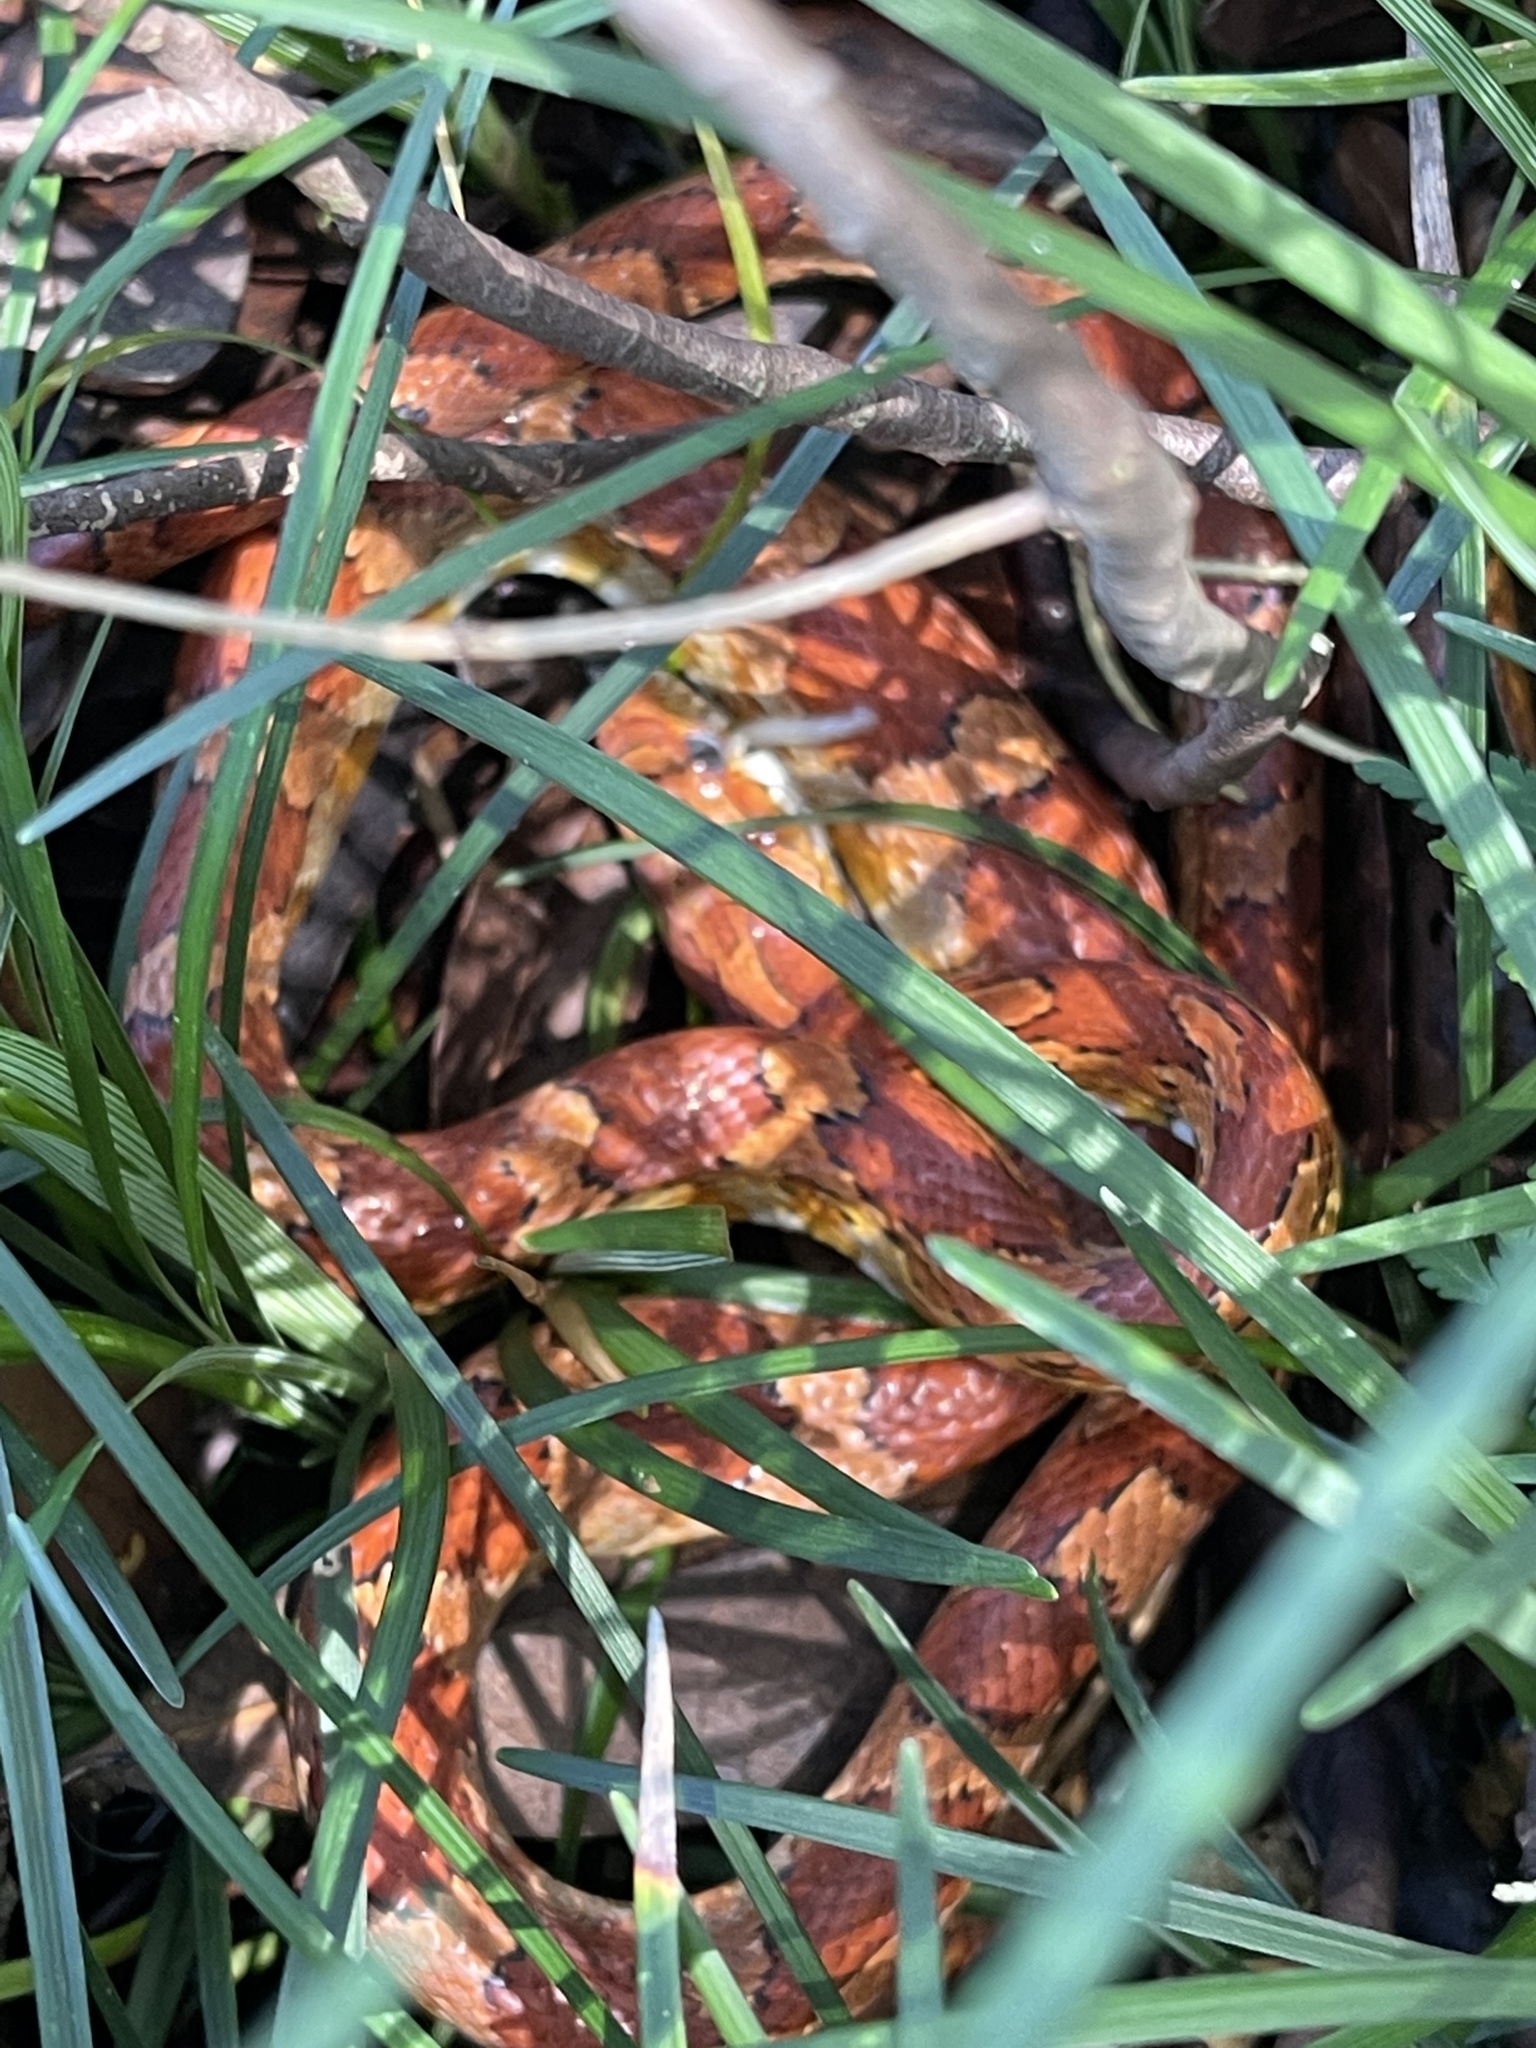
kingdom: Animalia
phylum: Chordata
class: Squamata
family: Colubridae
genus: Pantherophis
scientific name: Pantherophis guttatus
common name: Red cornsnake
